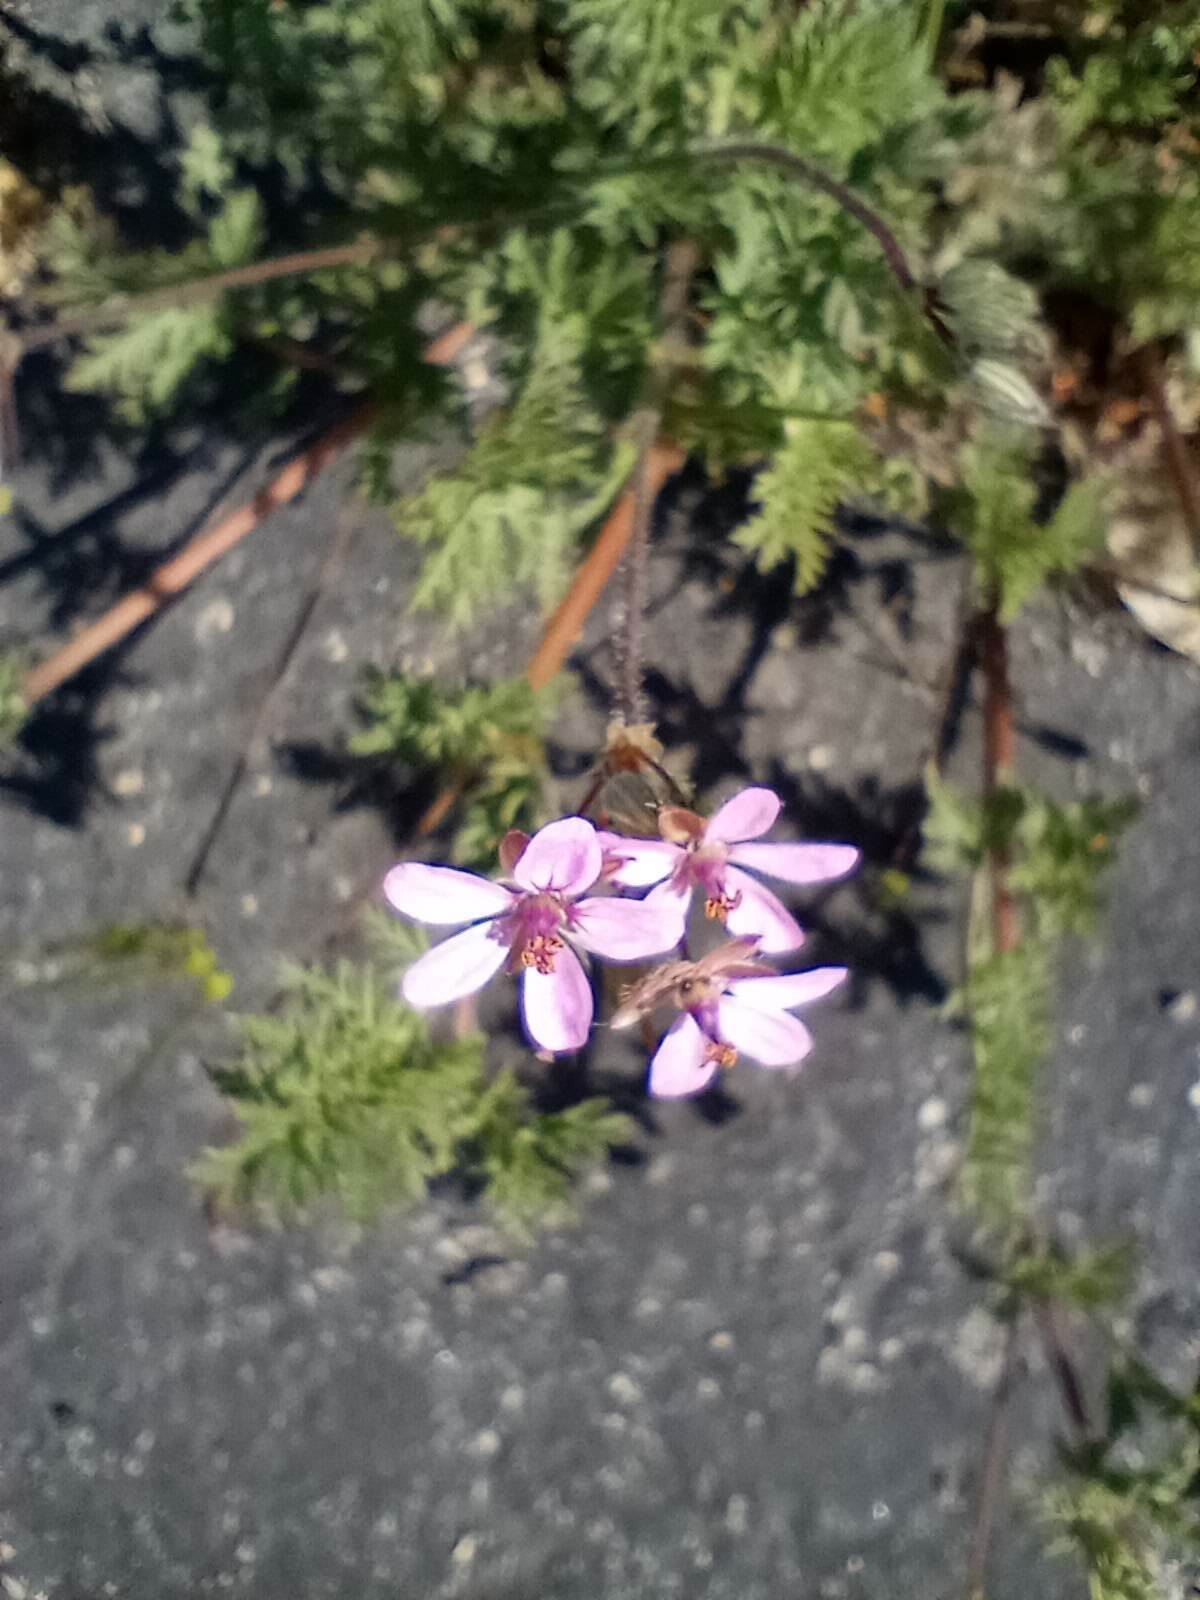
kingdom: Plantae
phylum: Tracheophyta
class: Magnoliopsida
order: Geraniales
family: Geraniaceae
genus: Erodium
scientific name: Erodium cicutarium
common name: Common stork's-bill
